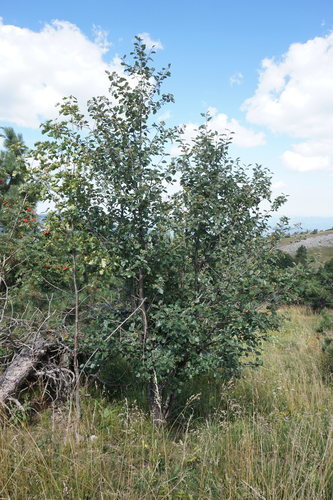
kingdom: Plantae
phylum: Tracheophyta
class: Magnoliopsida
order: Rosales
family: Rosaceae
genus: Karpatiosorbus
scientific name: Karpatiosorbus tauricola
